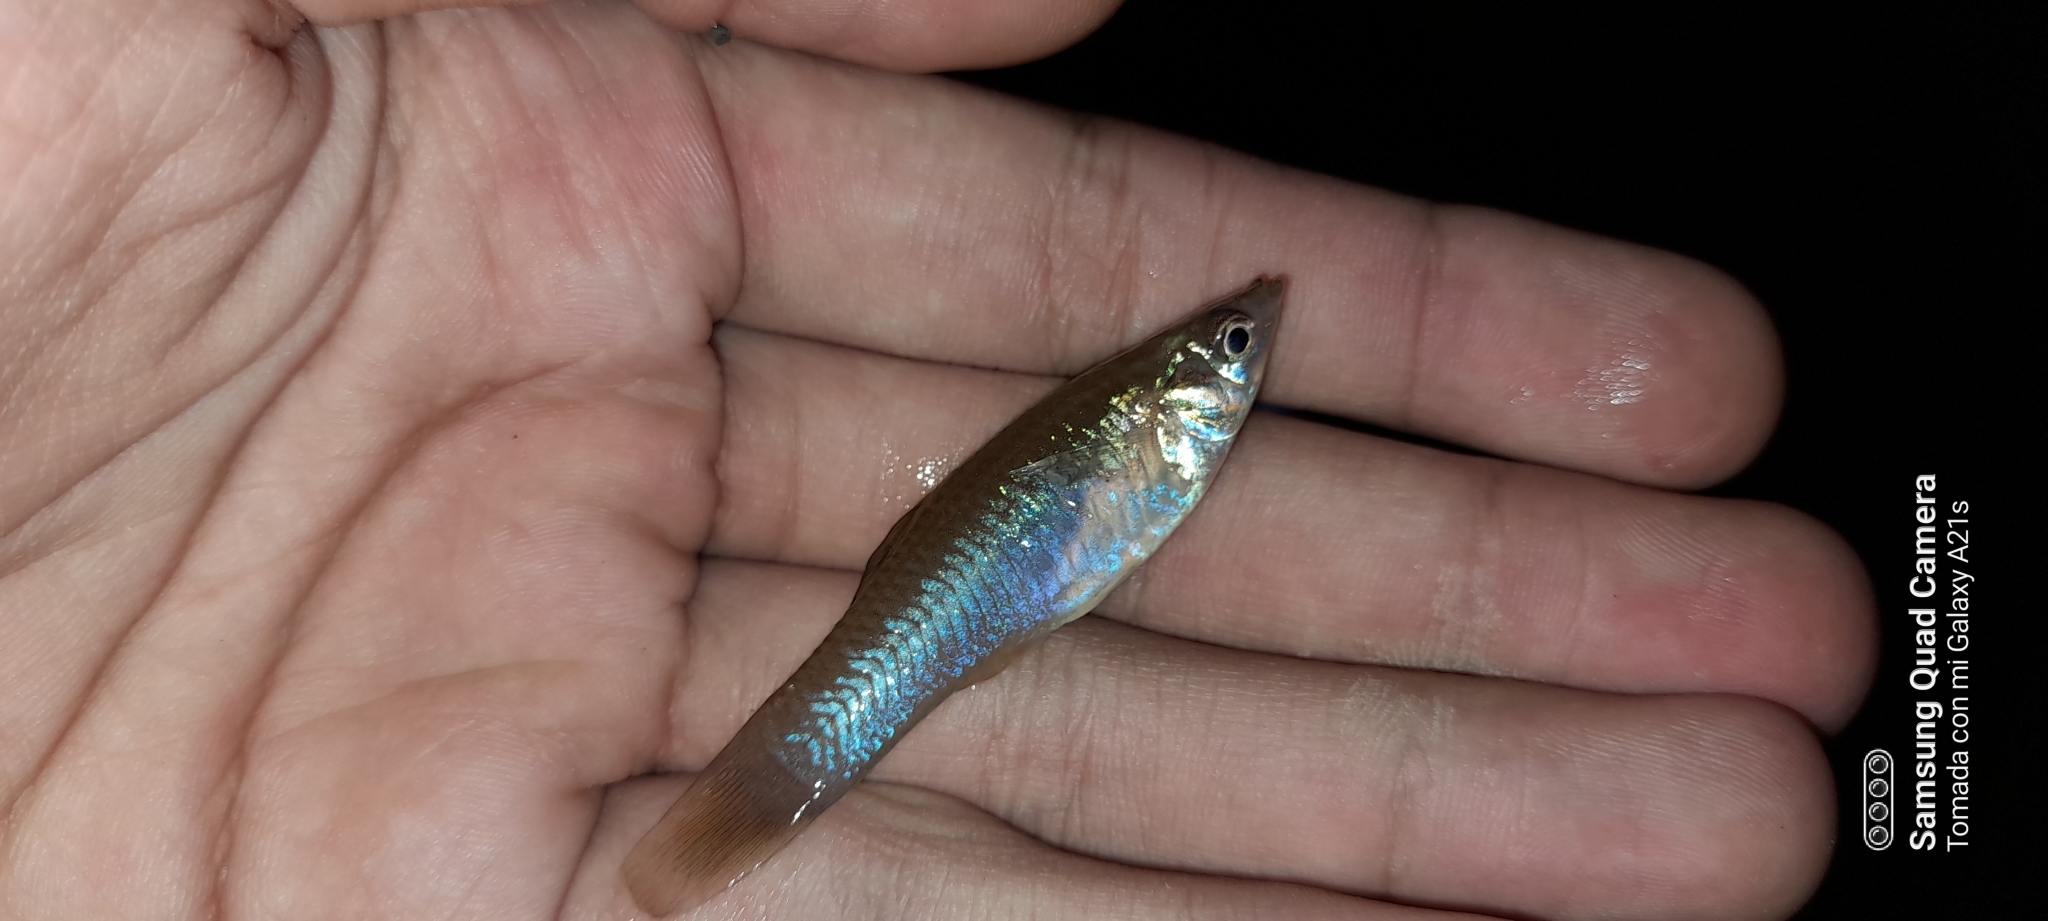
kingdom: Animalia
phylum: Chordata
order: Cyprinodontiformes
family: Poeciliidae
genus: Poecilia
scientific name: Poecilia gillii
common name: Gill's molly
